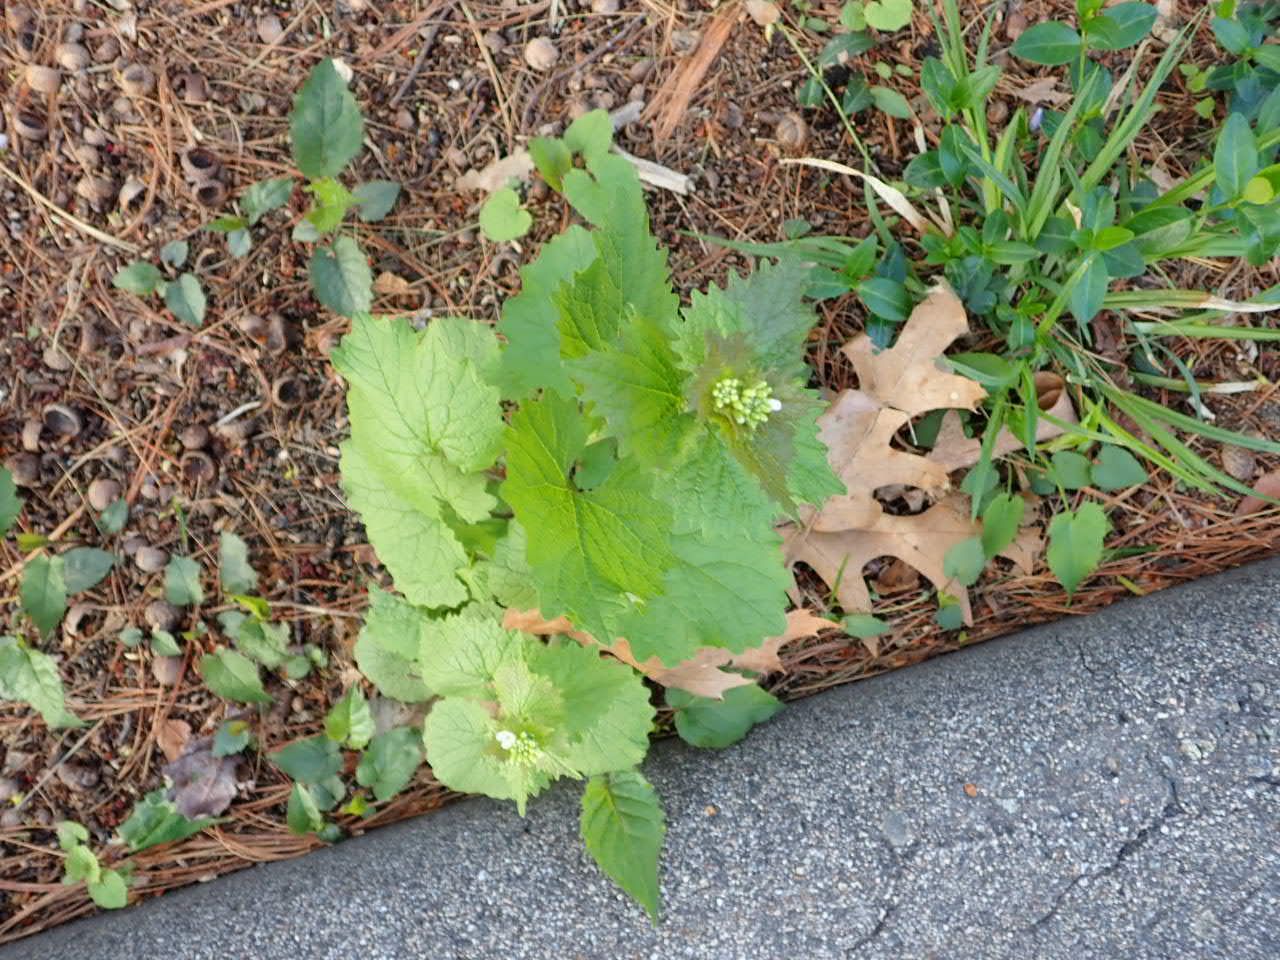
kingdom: Plantae
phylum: Tracheophyta
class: Magnoliopsida
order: Brassicales
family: Brassicaceae
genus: Alliaria
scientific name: Alliaria petiolata
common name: Garlic mustard
